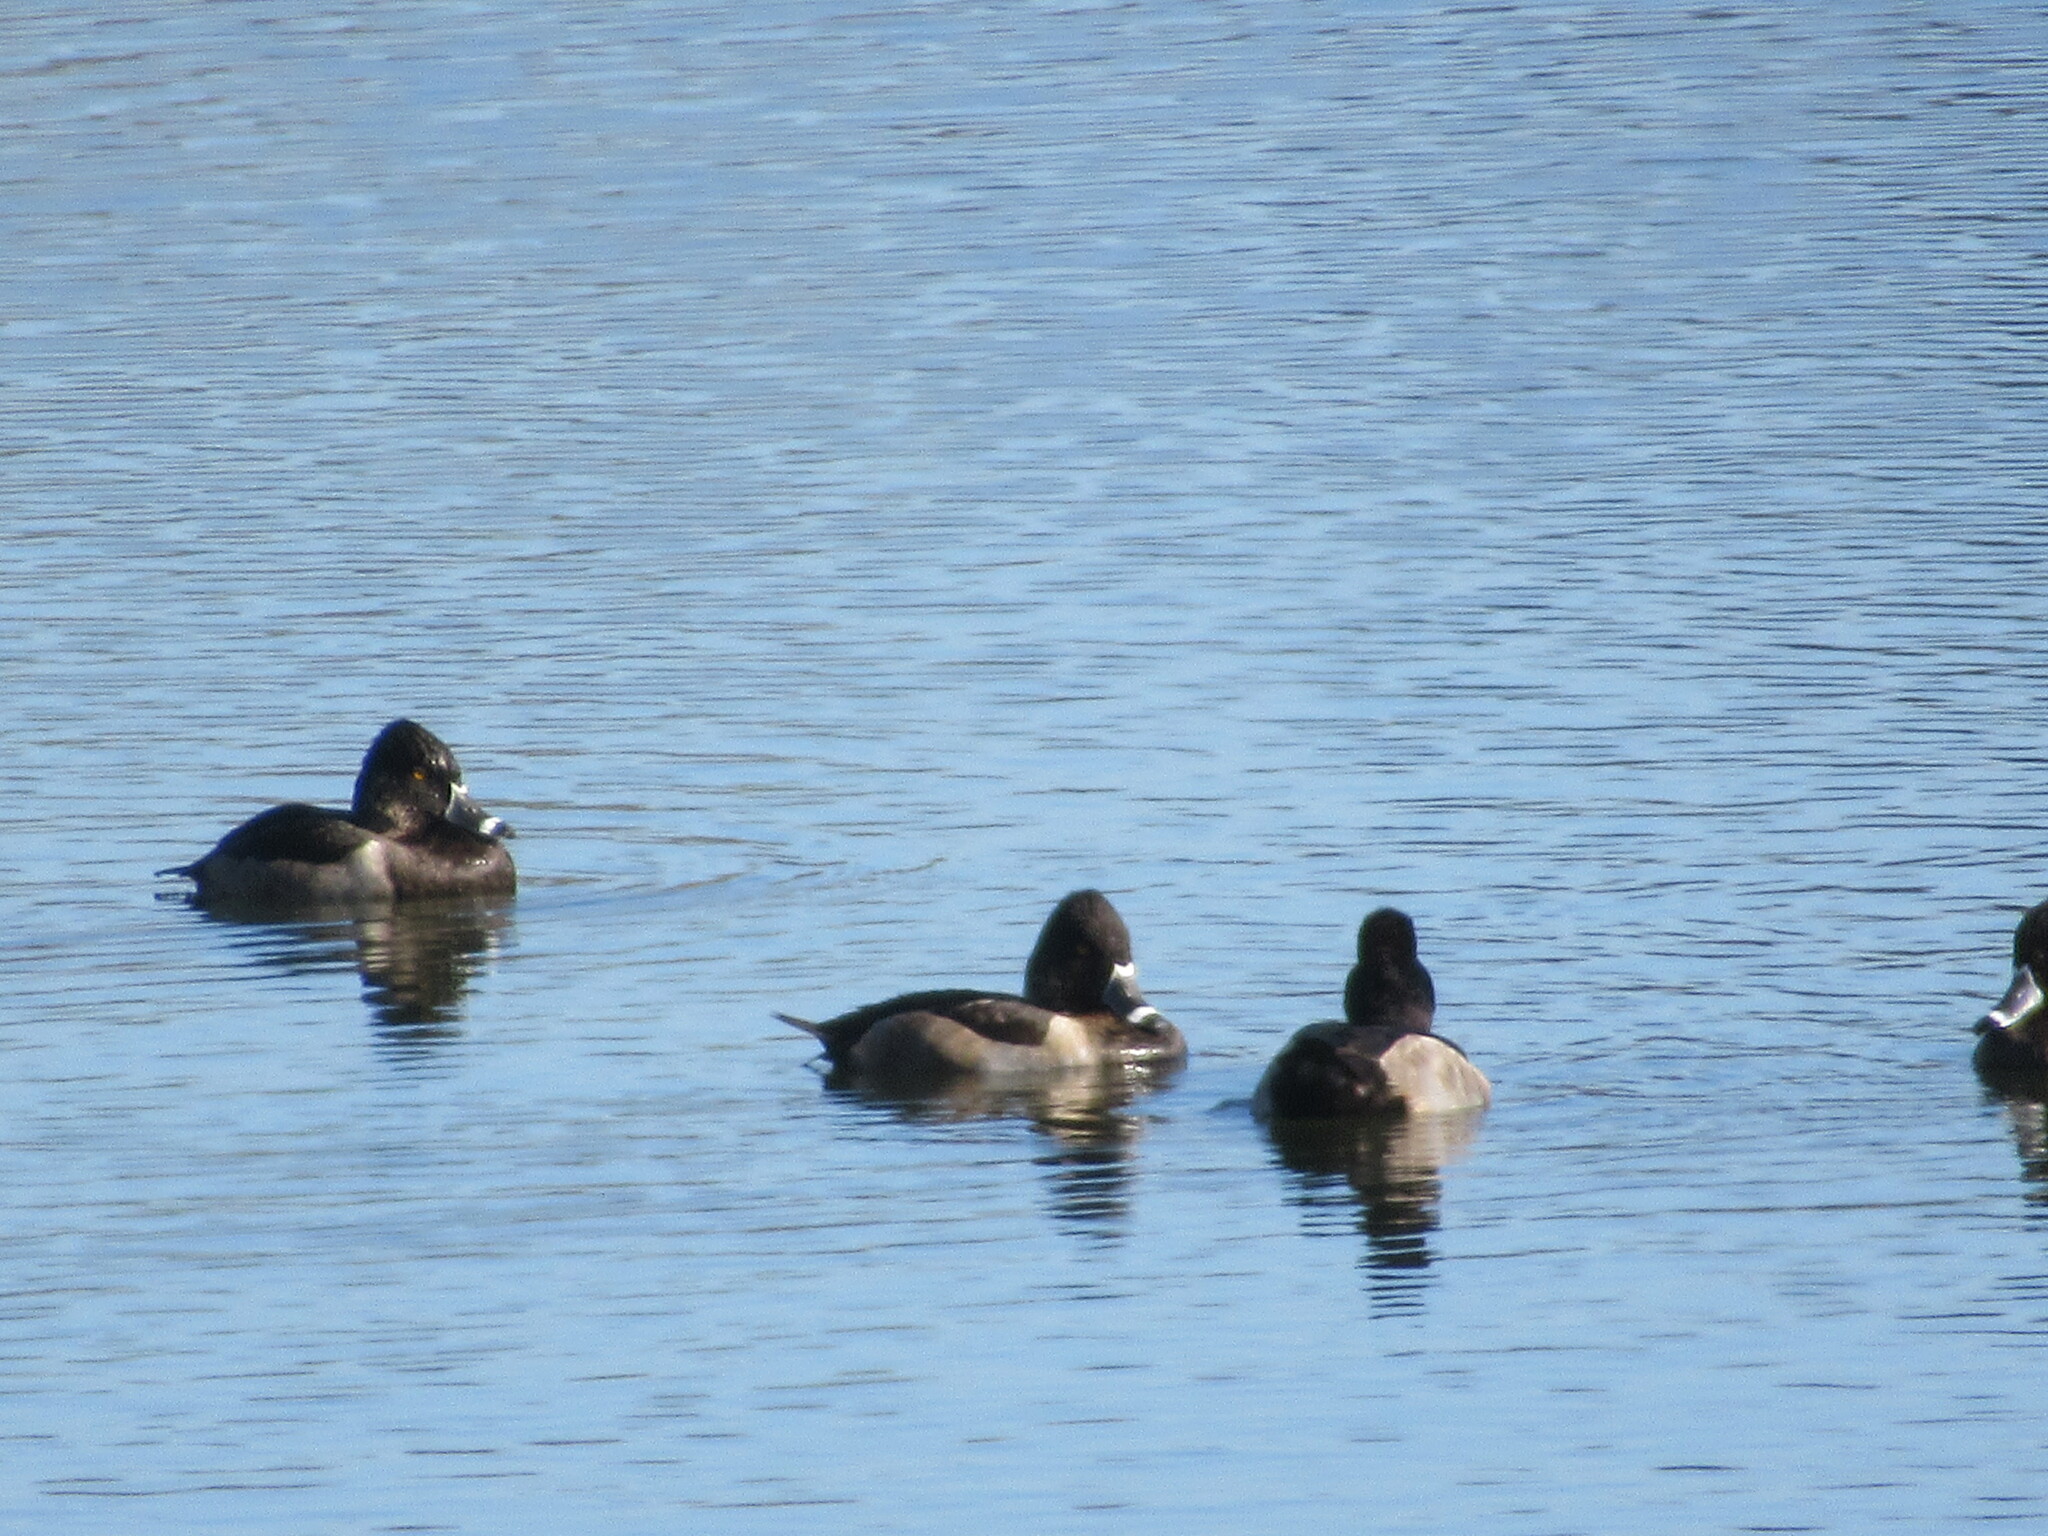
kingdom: Animalia
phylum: Chordata
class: Aves
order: Anseriformes
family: Anatidae
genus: Aythya
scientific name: Aythya collaris
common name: Ring-necked duck
